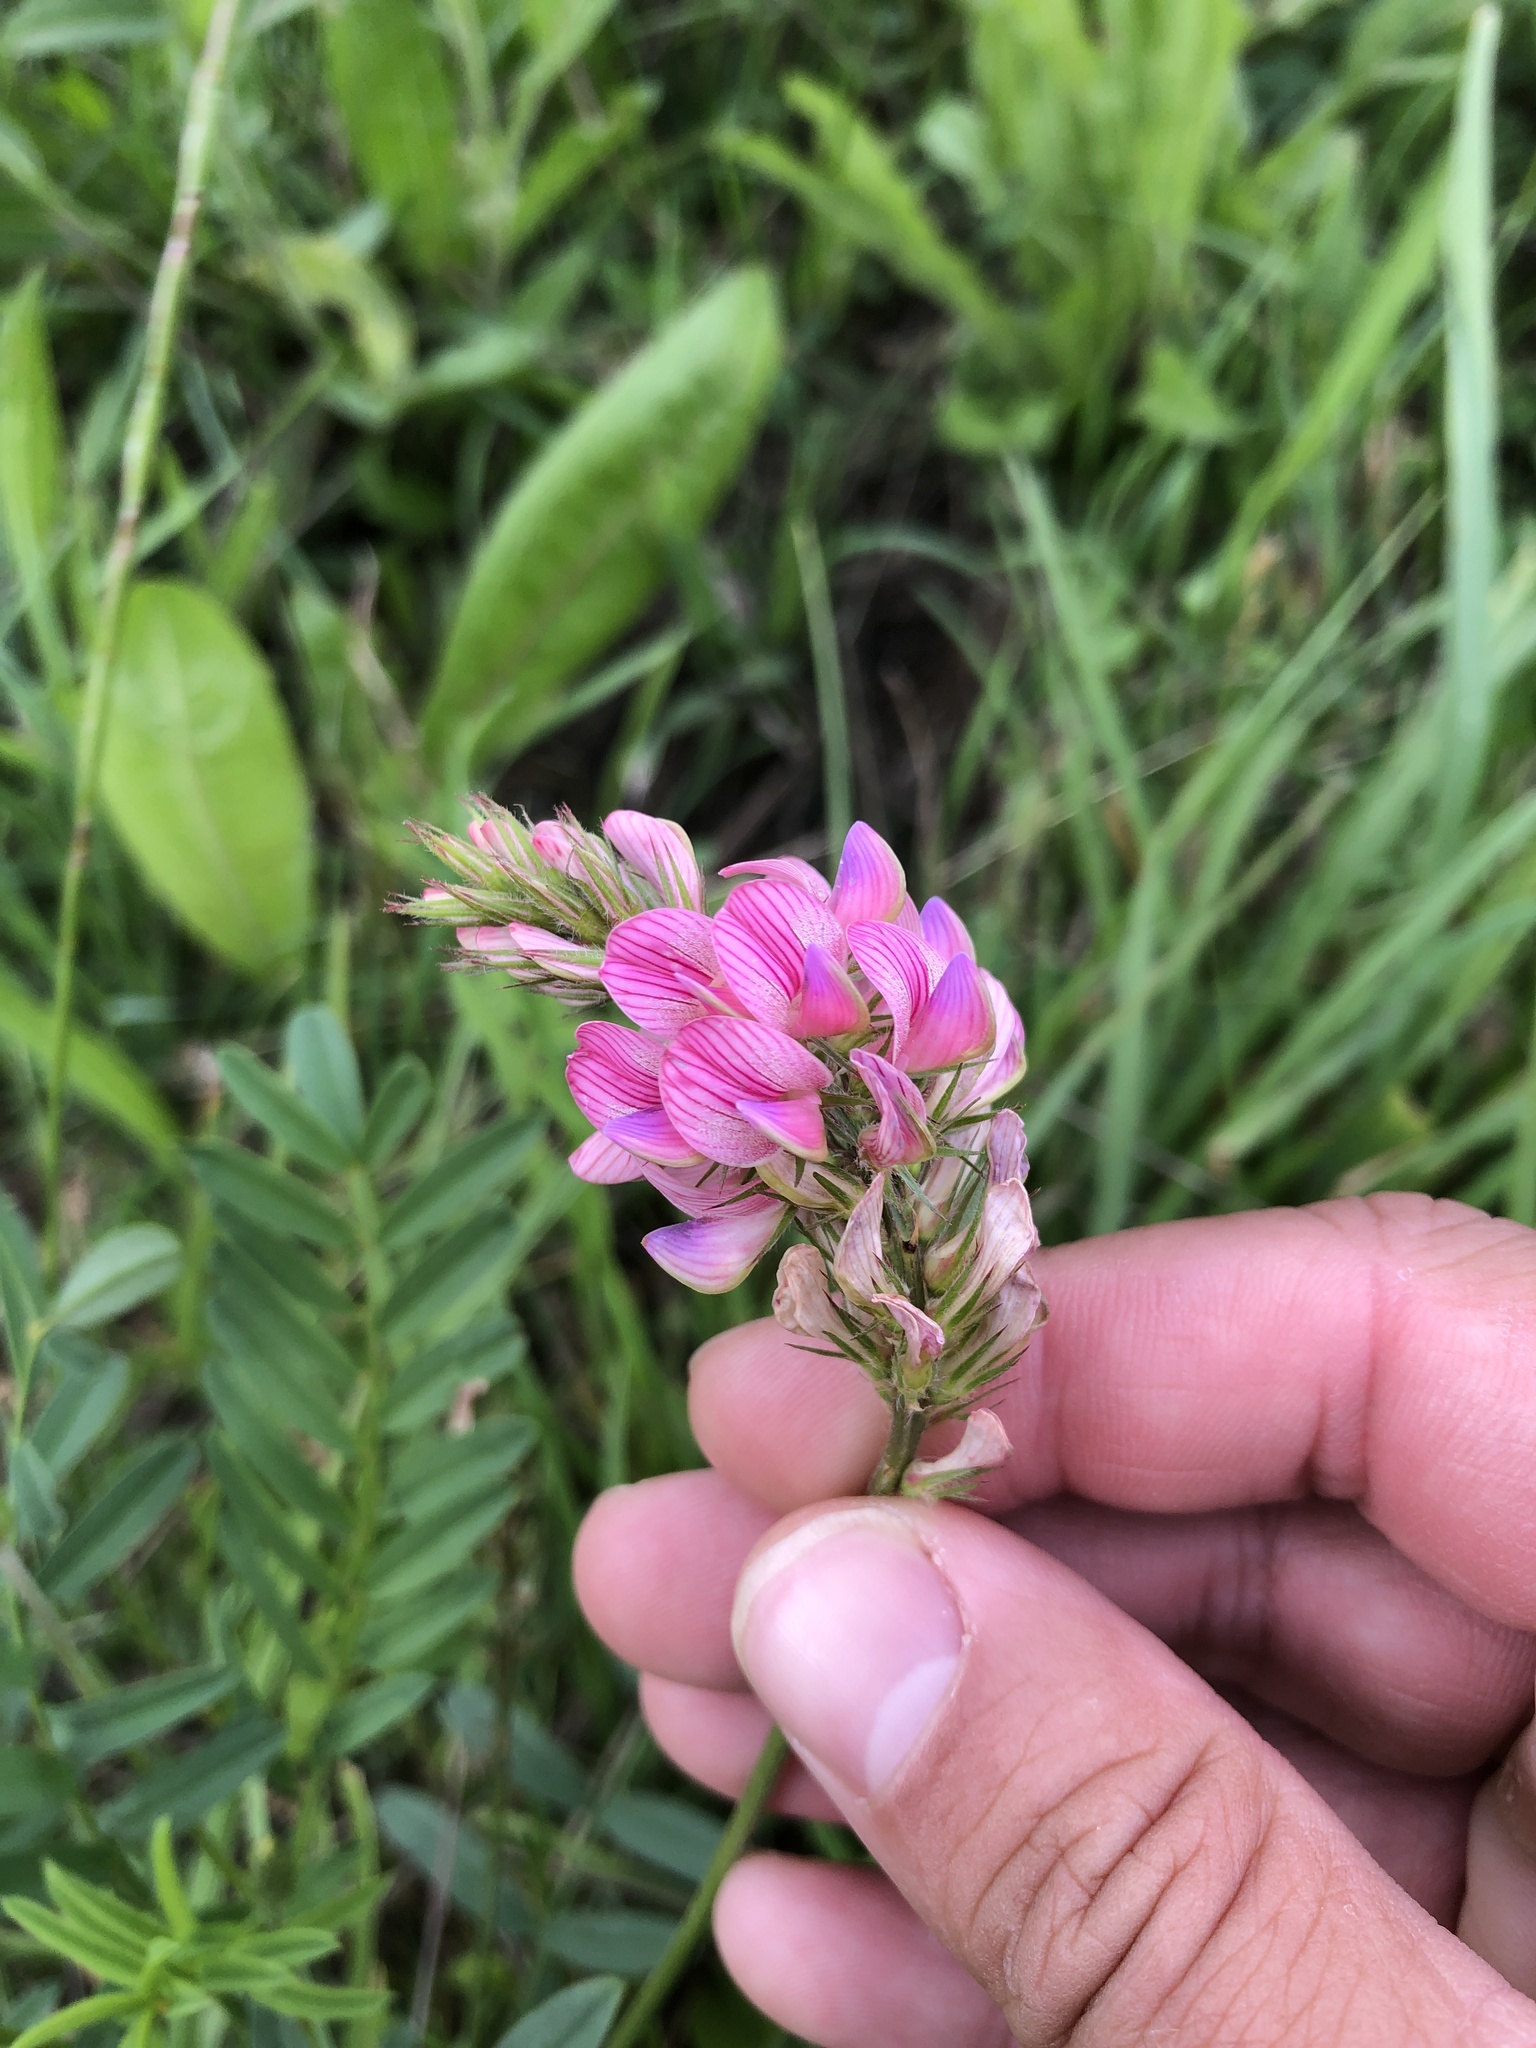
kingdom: Plantae
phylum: Tracheophyta
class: Magnoliopsida
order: Fabales
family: Fabaceae
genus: Onobrychis
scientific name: Onobrychis viciifolia
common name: Sainfoin
